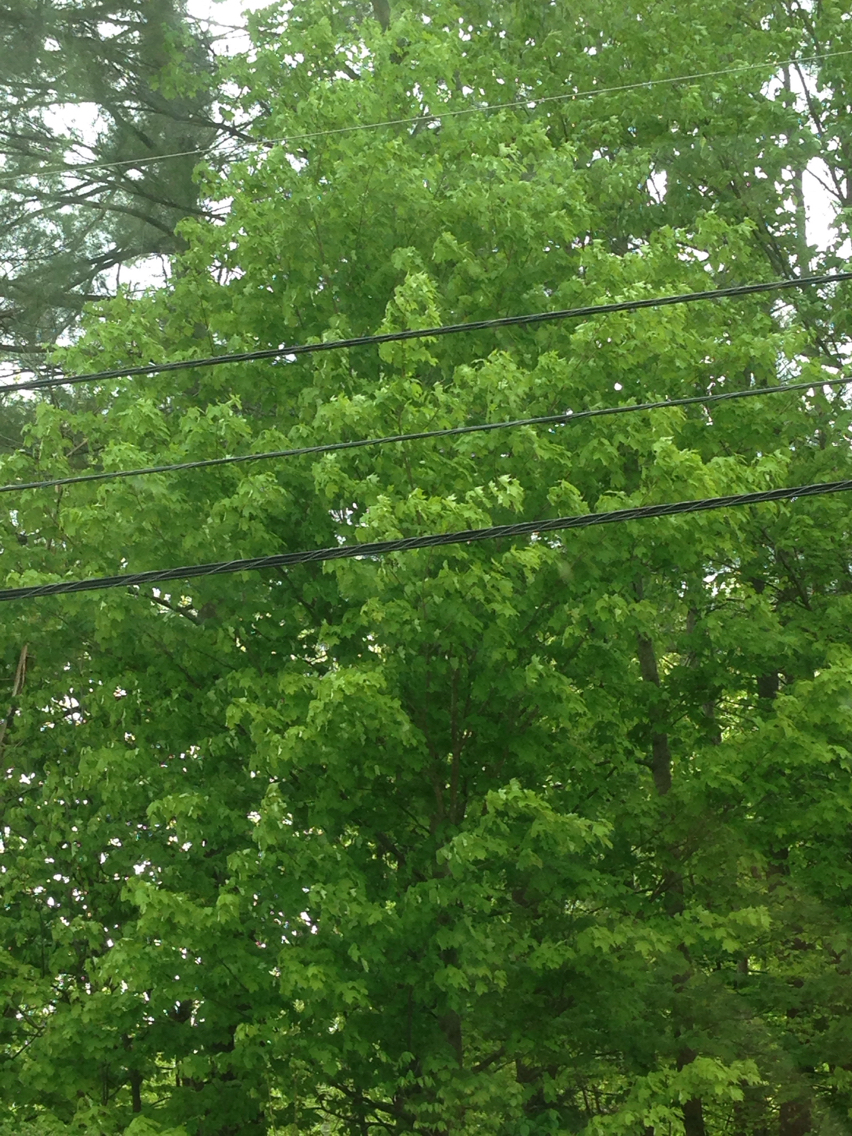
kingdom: Plantae
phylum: Tracheophyta
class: Magnoliopsida
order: Sapindales
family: Sapindaceae
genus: Acer
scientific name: Acer saccharum
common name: Sugar maple
